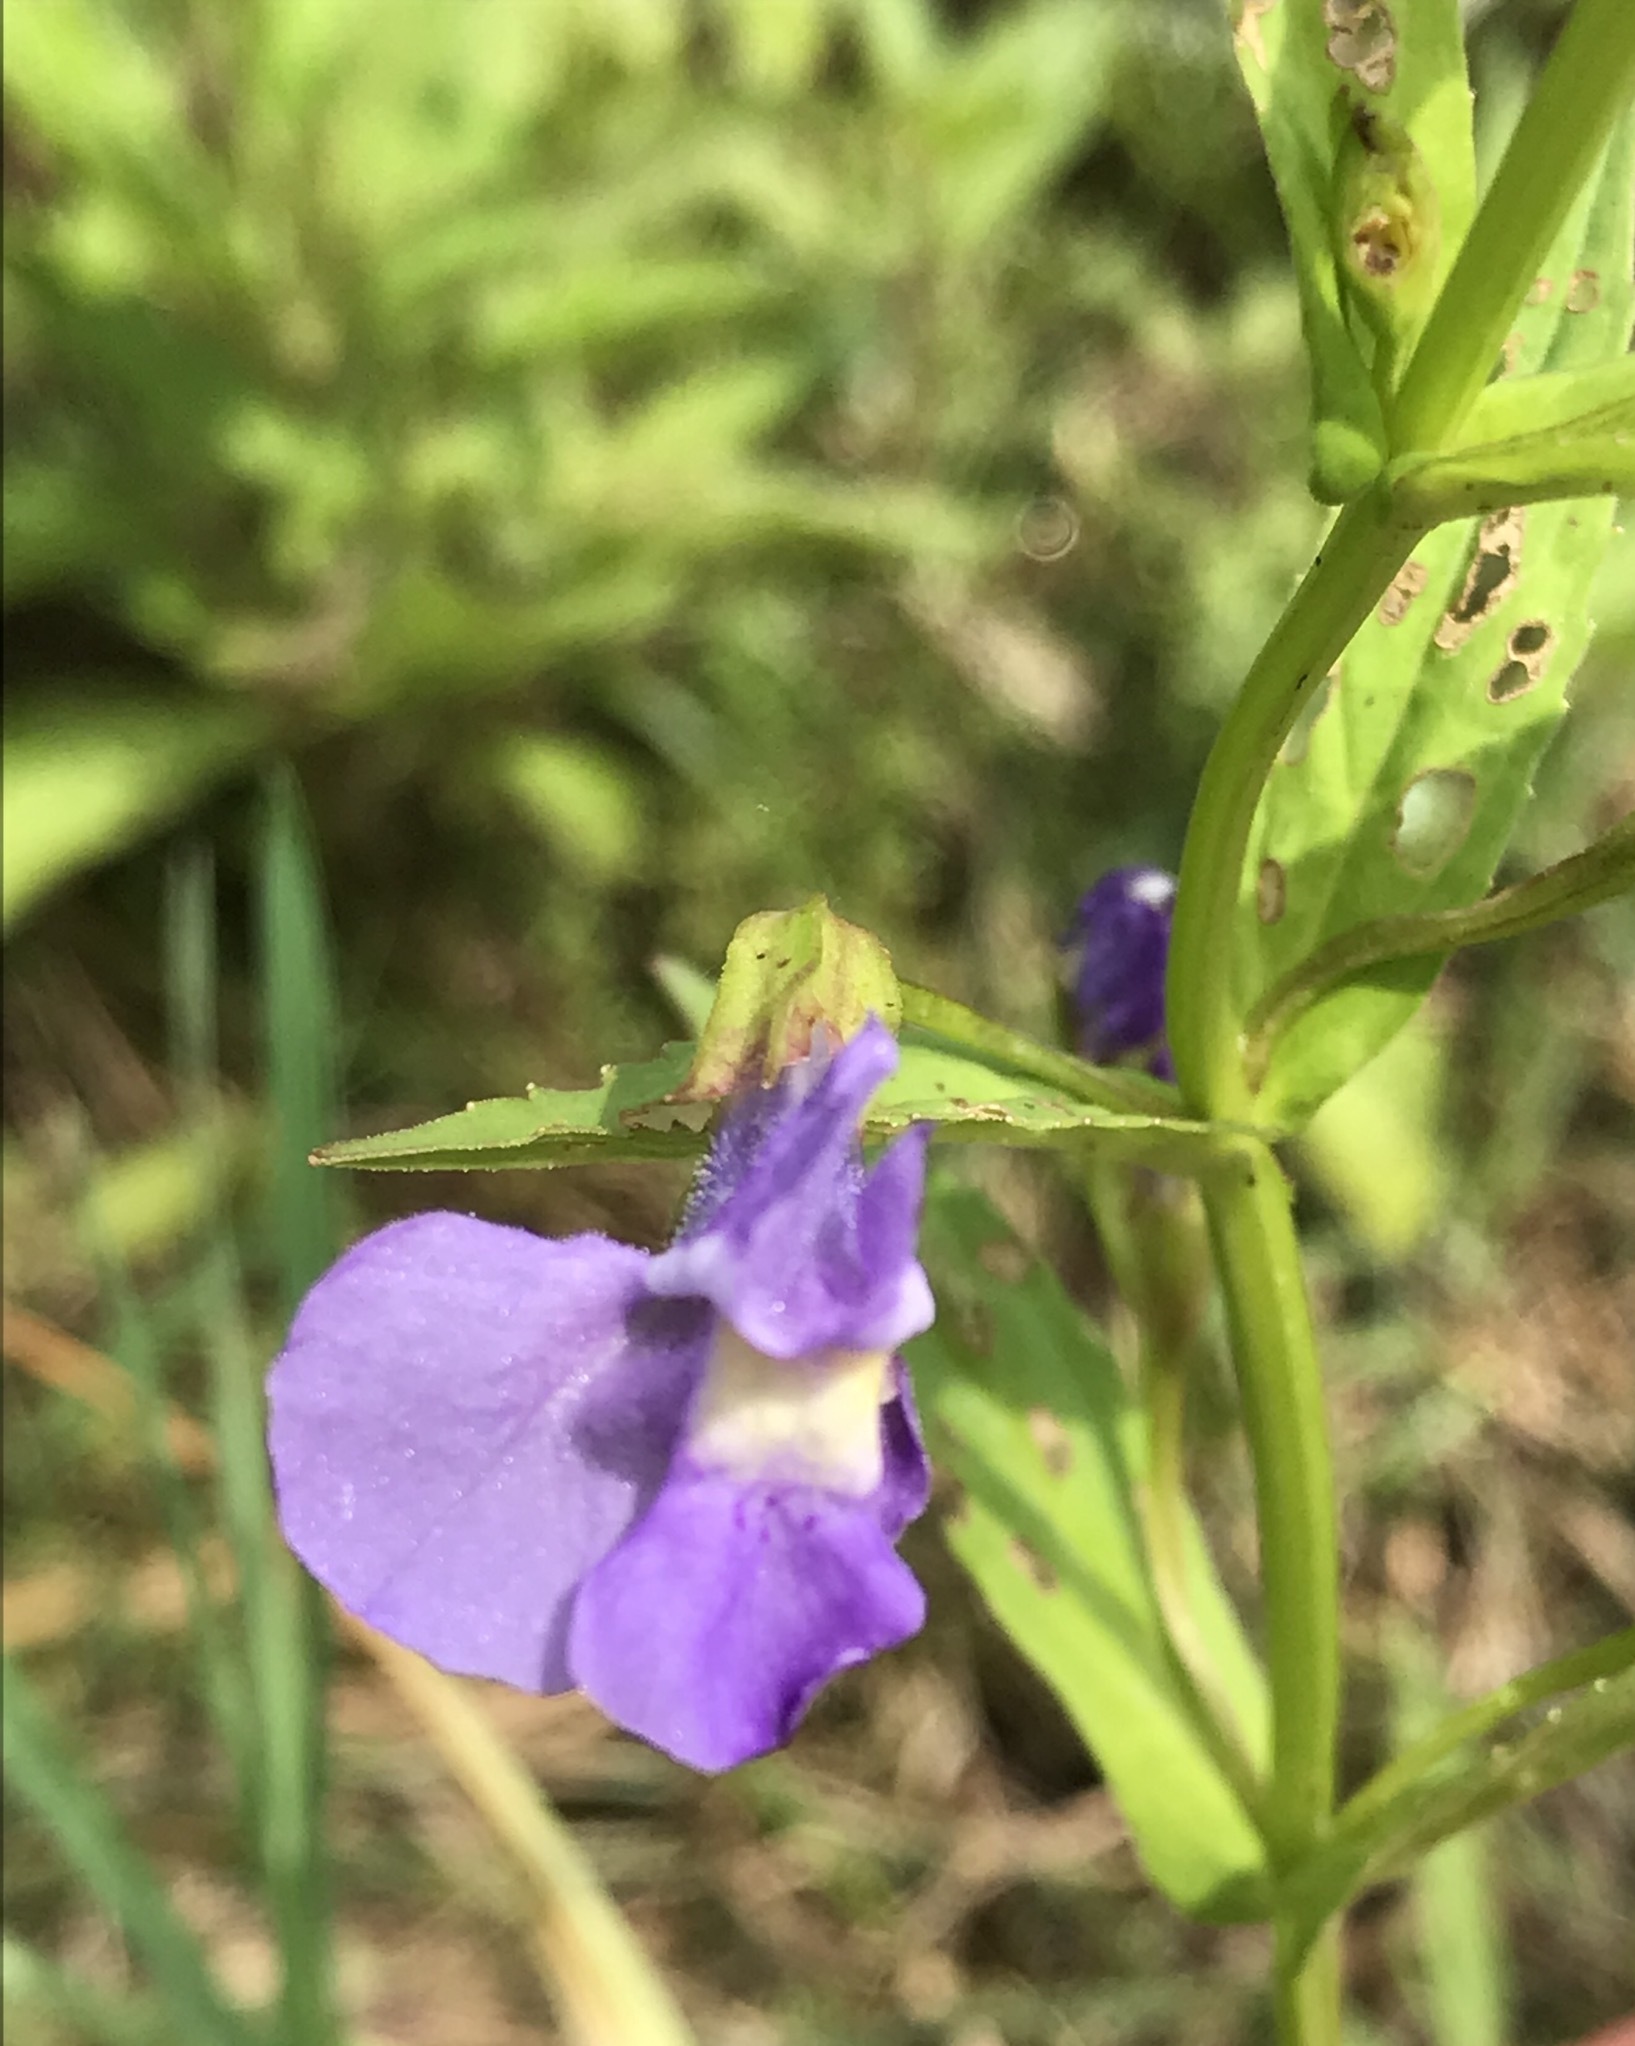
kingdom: Plantae
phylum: Tracheophyta
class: Magnoliopsida
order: Lamiales
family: Phrymaceae
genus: Mimulus
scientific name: Mimulus ringens
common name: Allegheny monkeyflower
